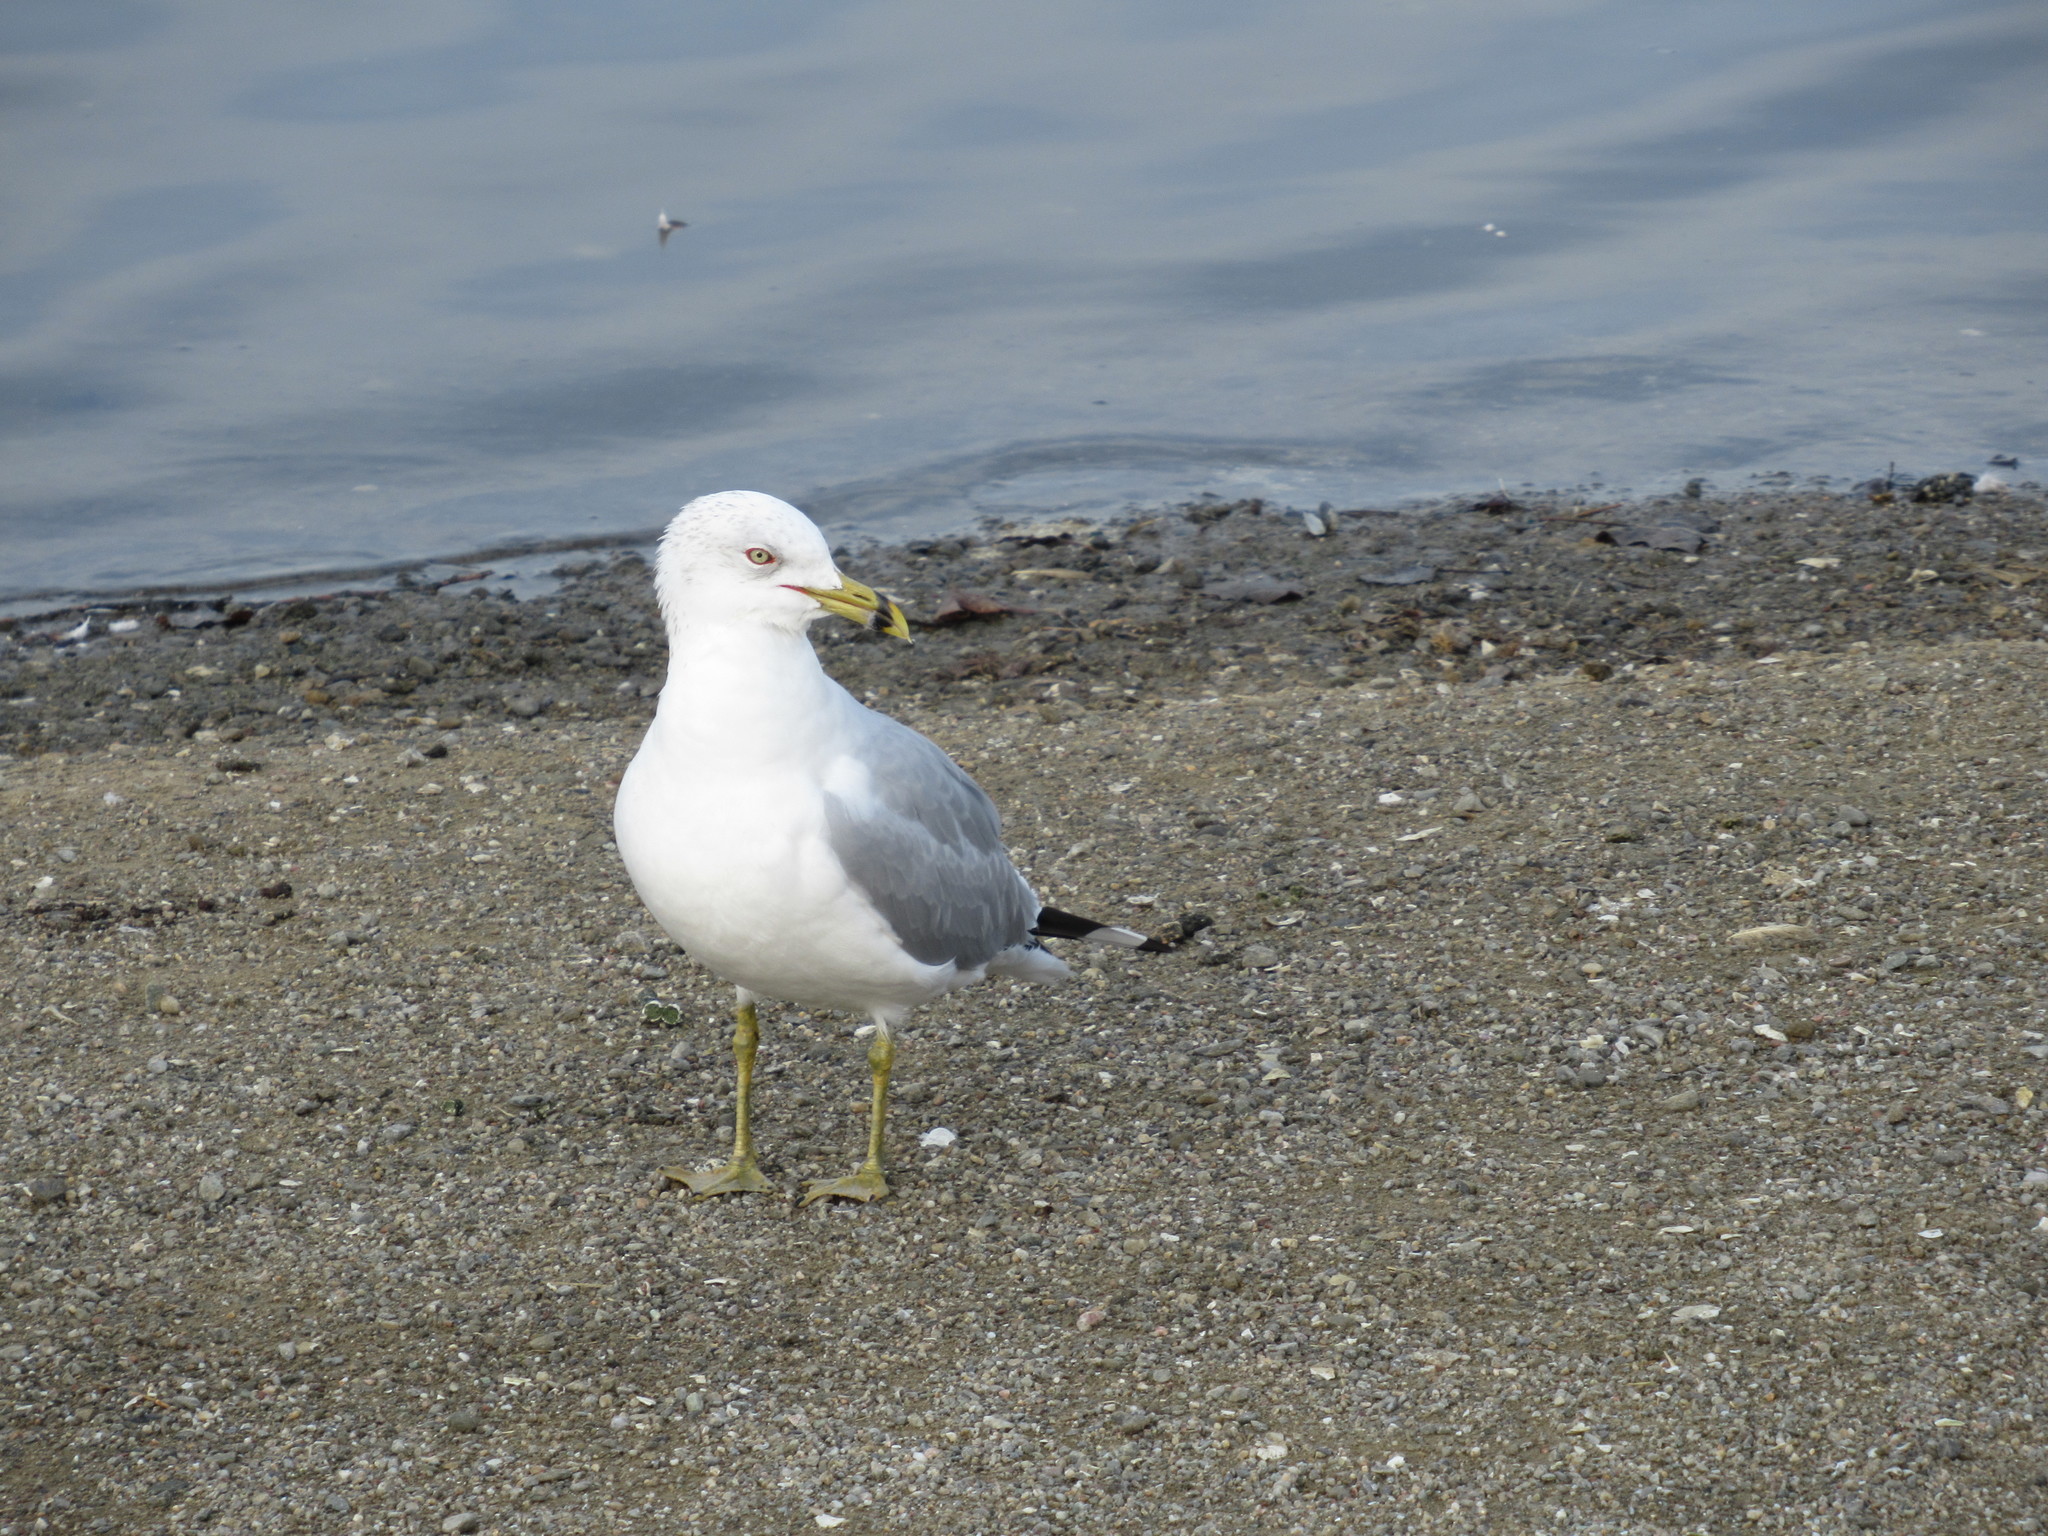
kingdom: Animalia
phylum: Chordata
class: Aves
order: Charadriiformes
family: Laridae
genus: Larus
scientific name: Larus delawarensis
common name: Ring-billed gull
